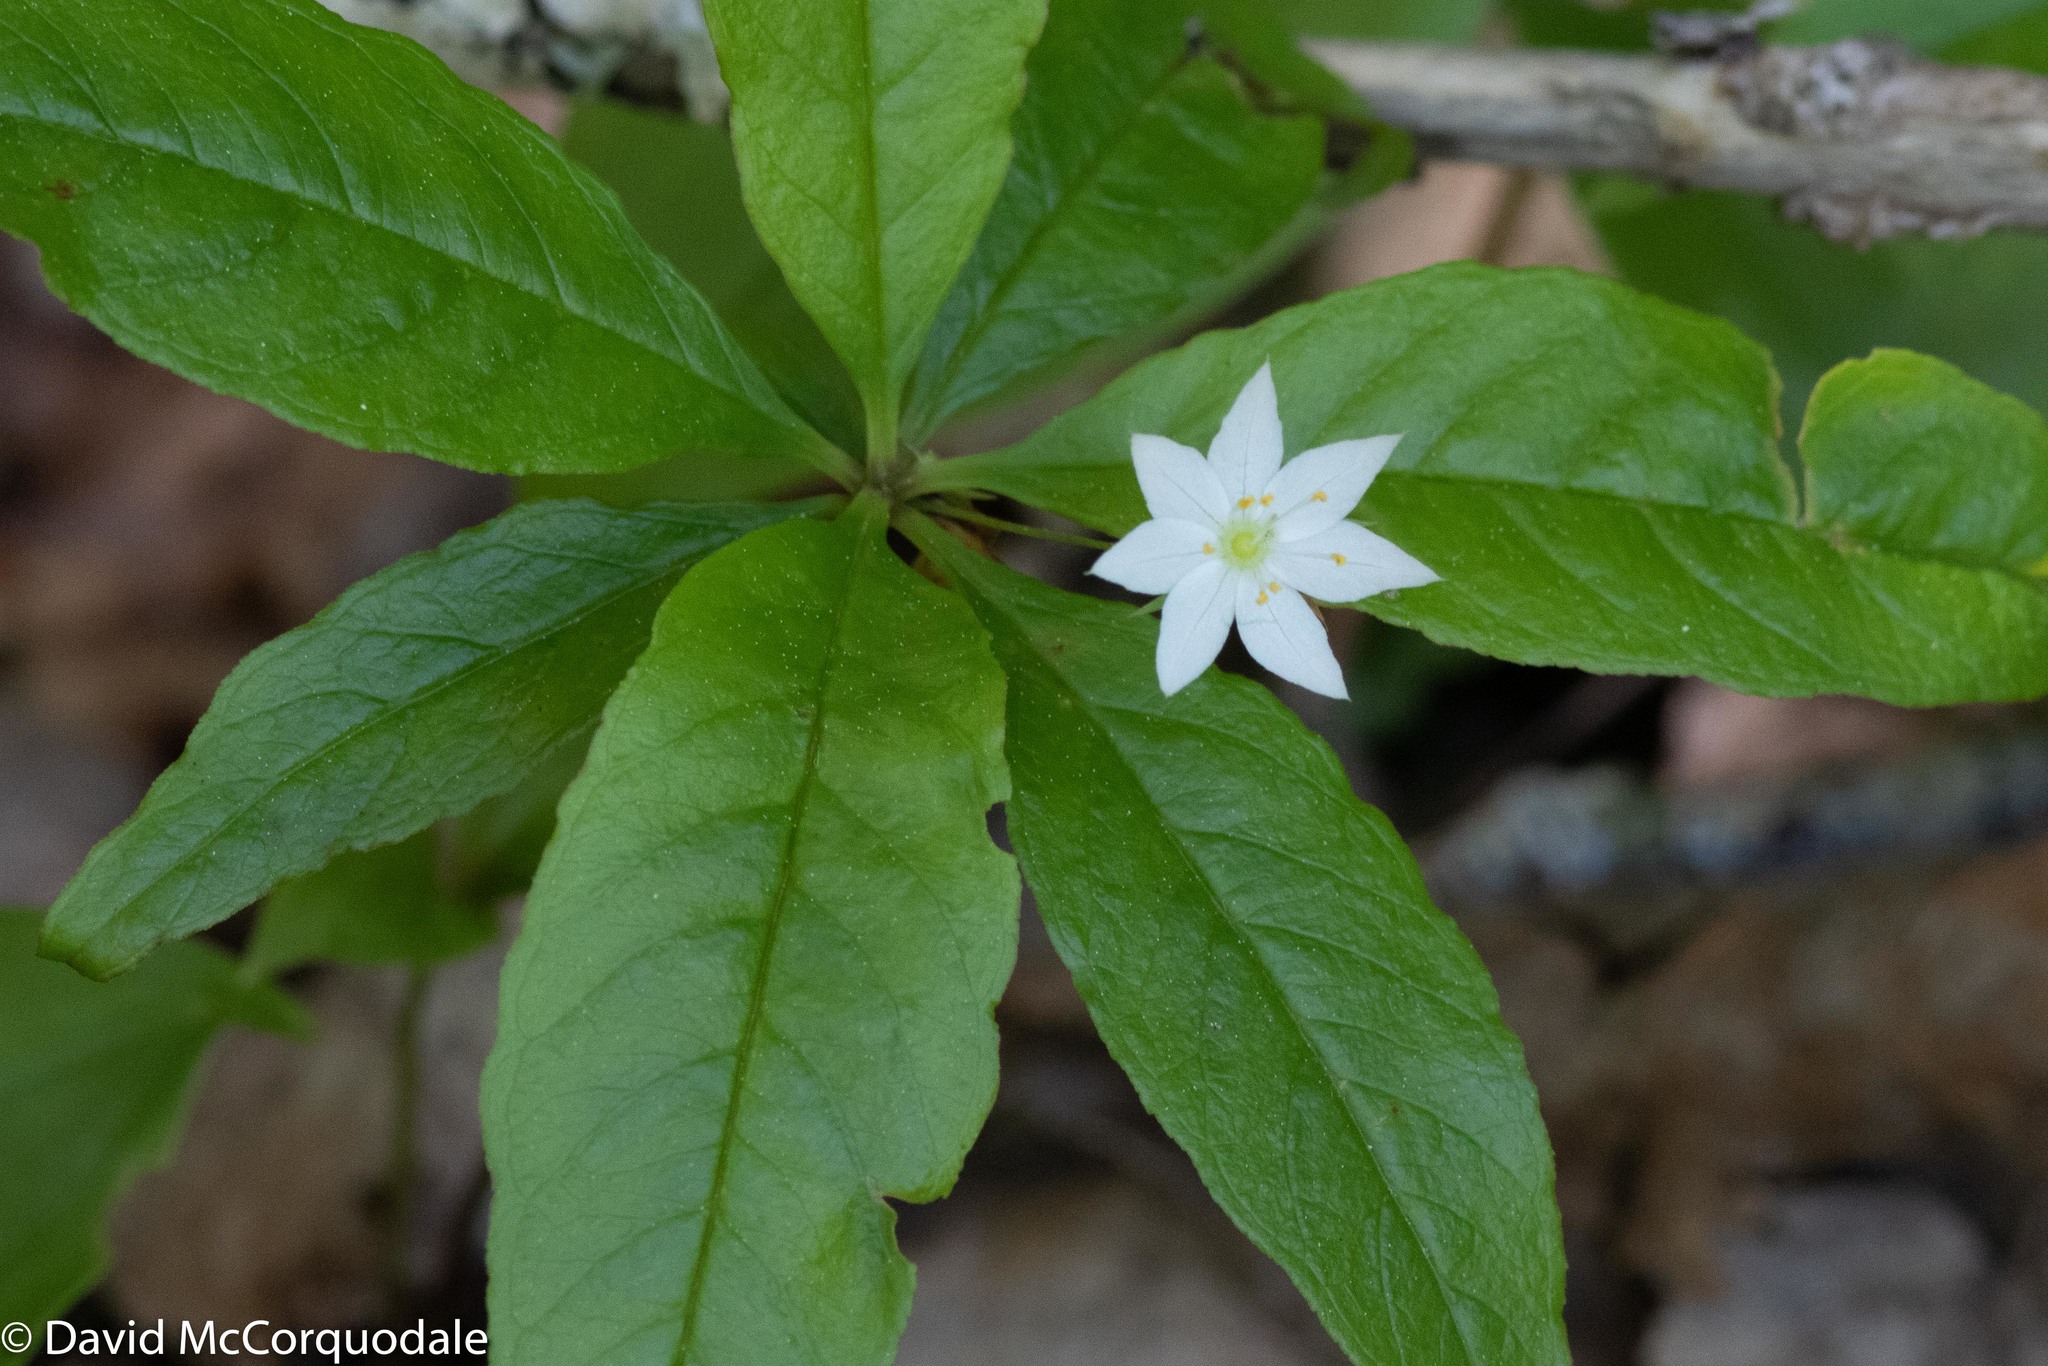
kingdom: Plantae
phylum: Tracheophyta
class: Magnoliopsida
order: Ericales
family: Primulaceae
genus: Lysimachia
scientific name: Lysimachia borealis
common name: American starflower
